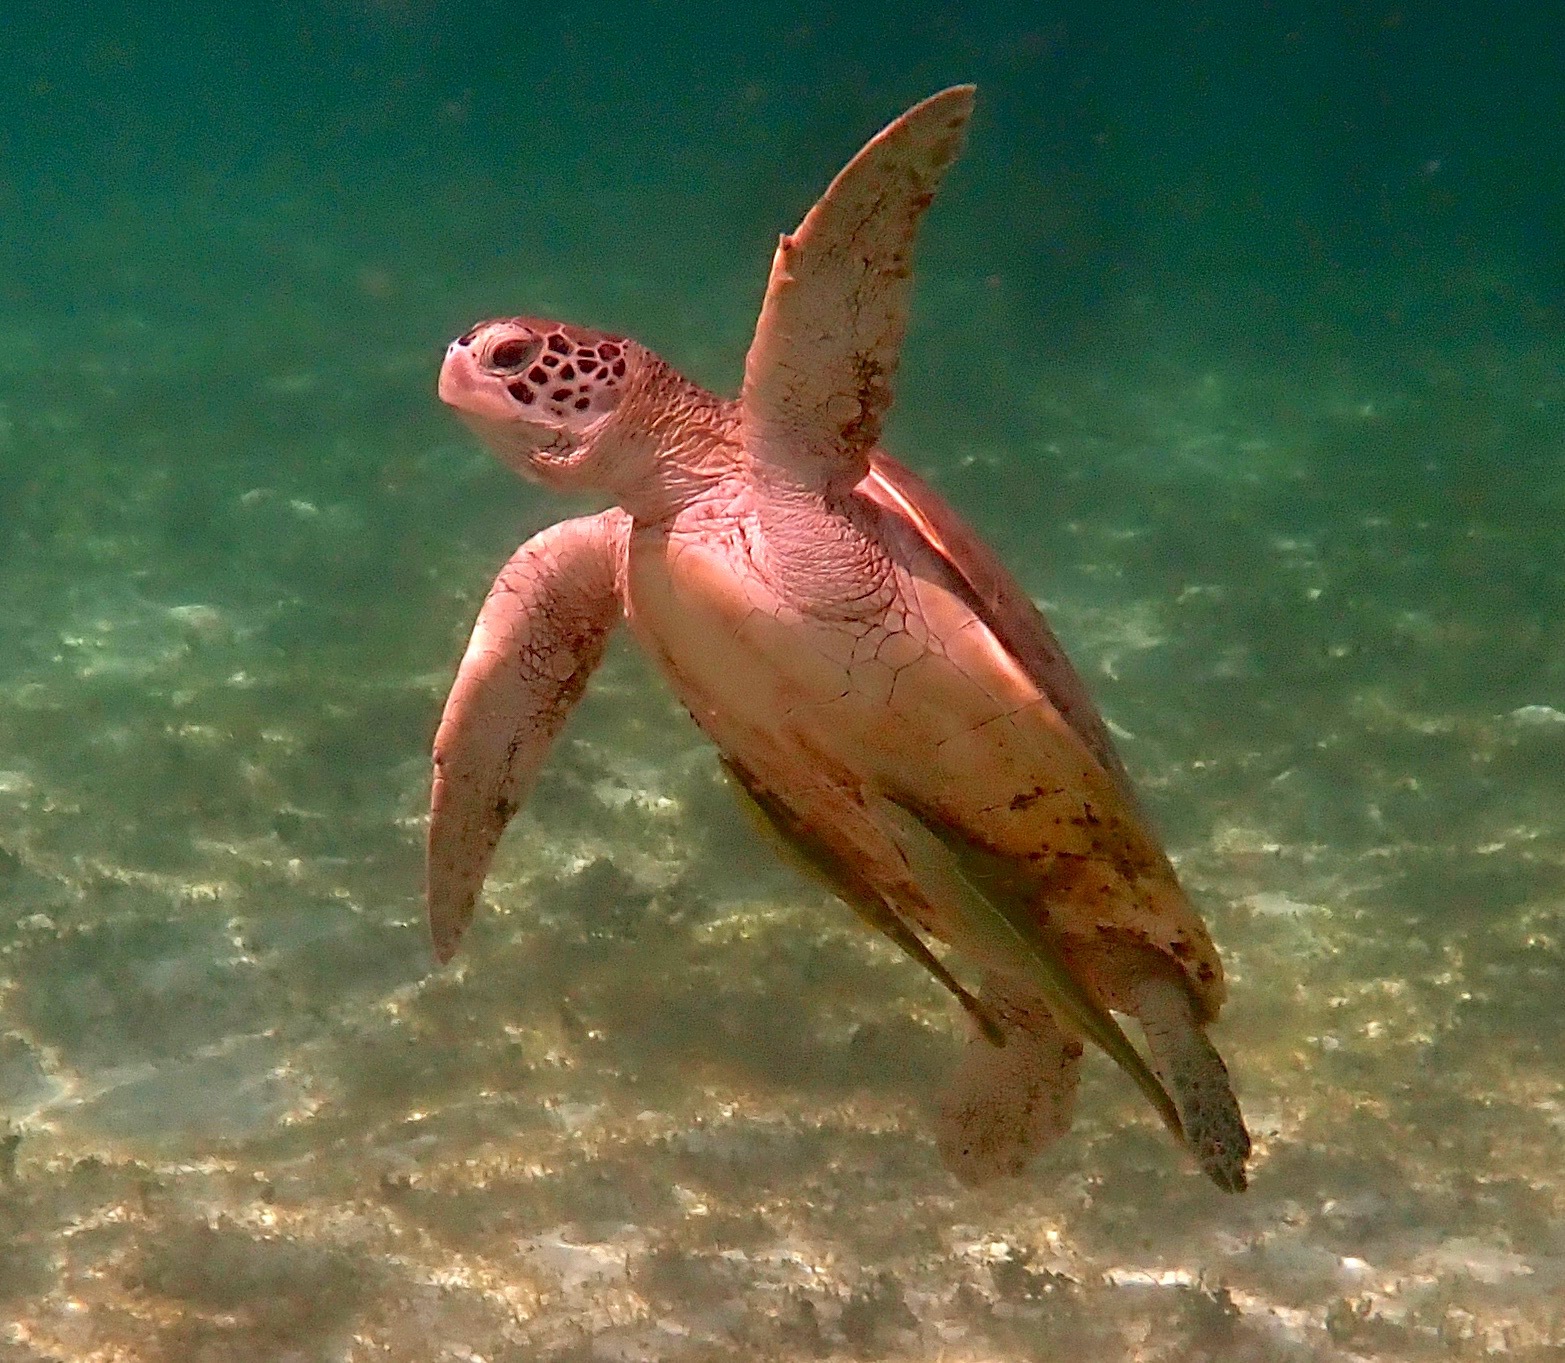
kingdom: Animalia
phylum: Chordata
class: Testudines
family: Cheloniidae
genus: Chelonia
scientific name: Chelonia mydas
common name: Green turtle
